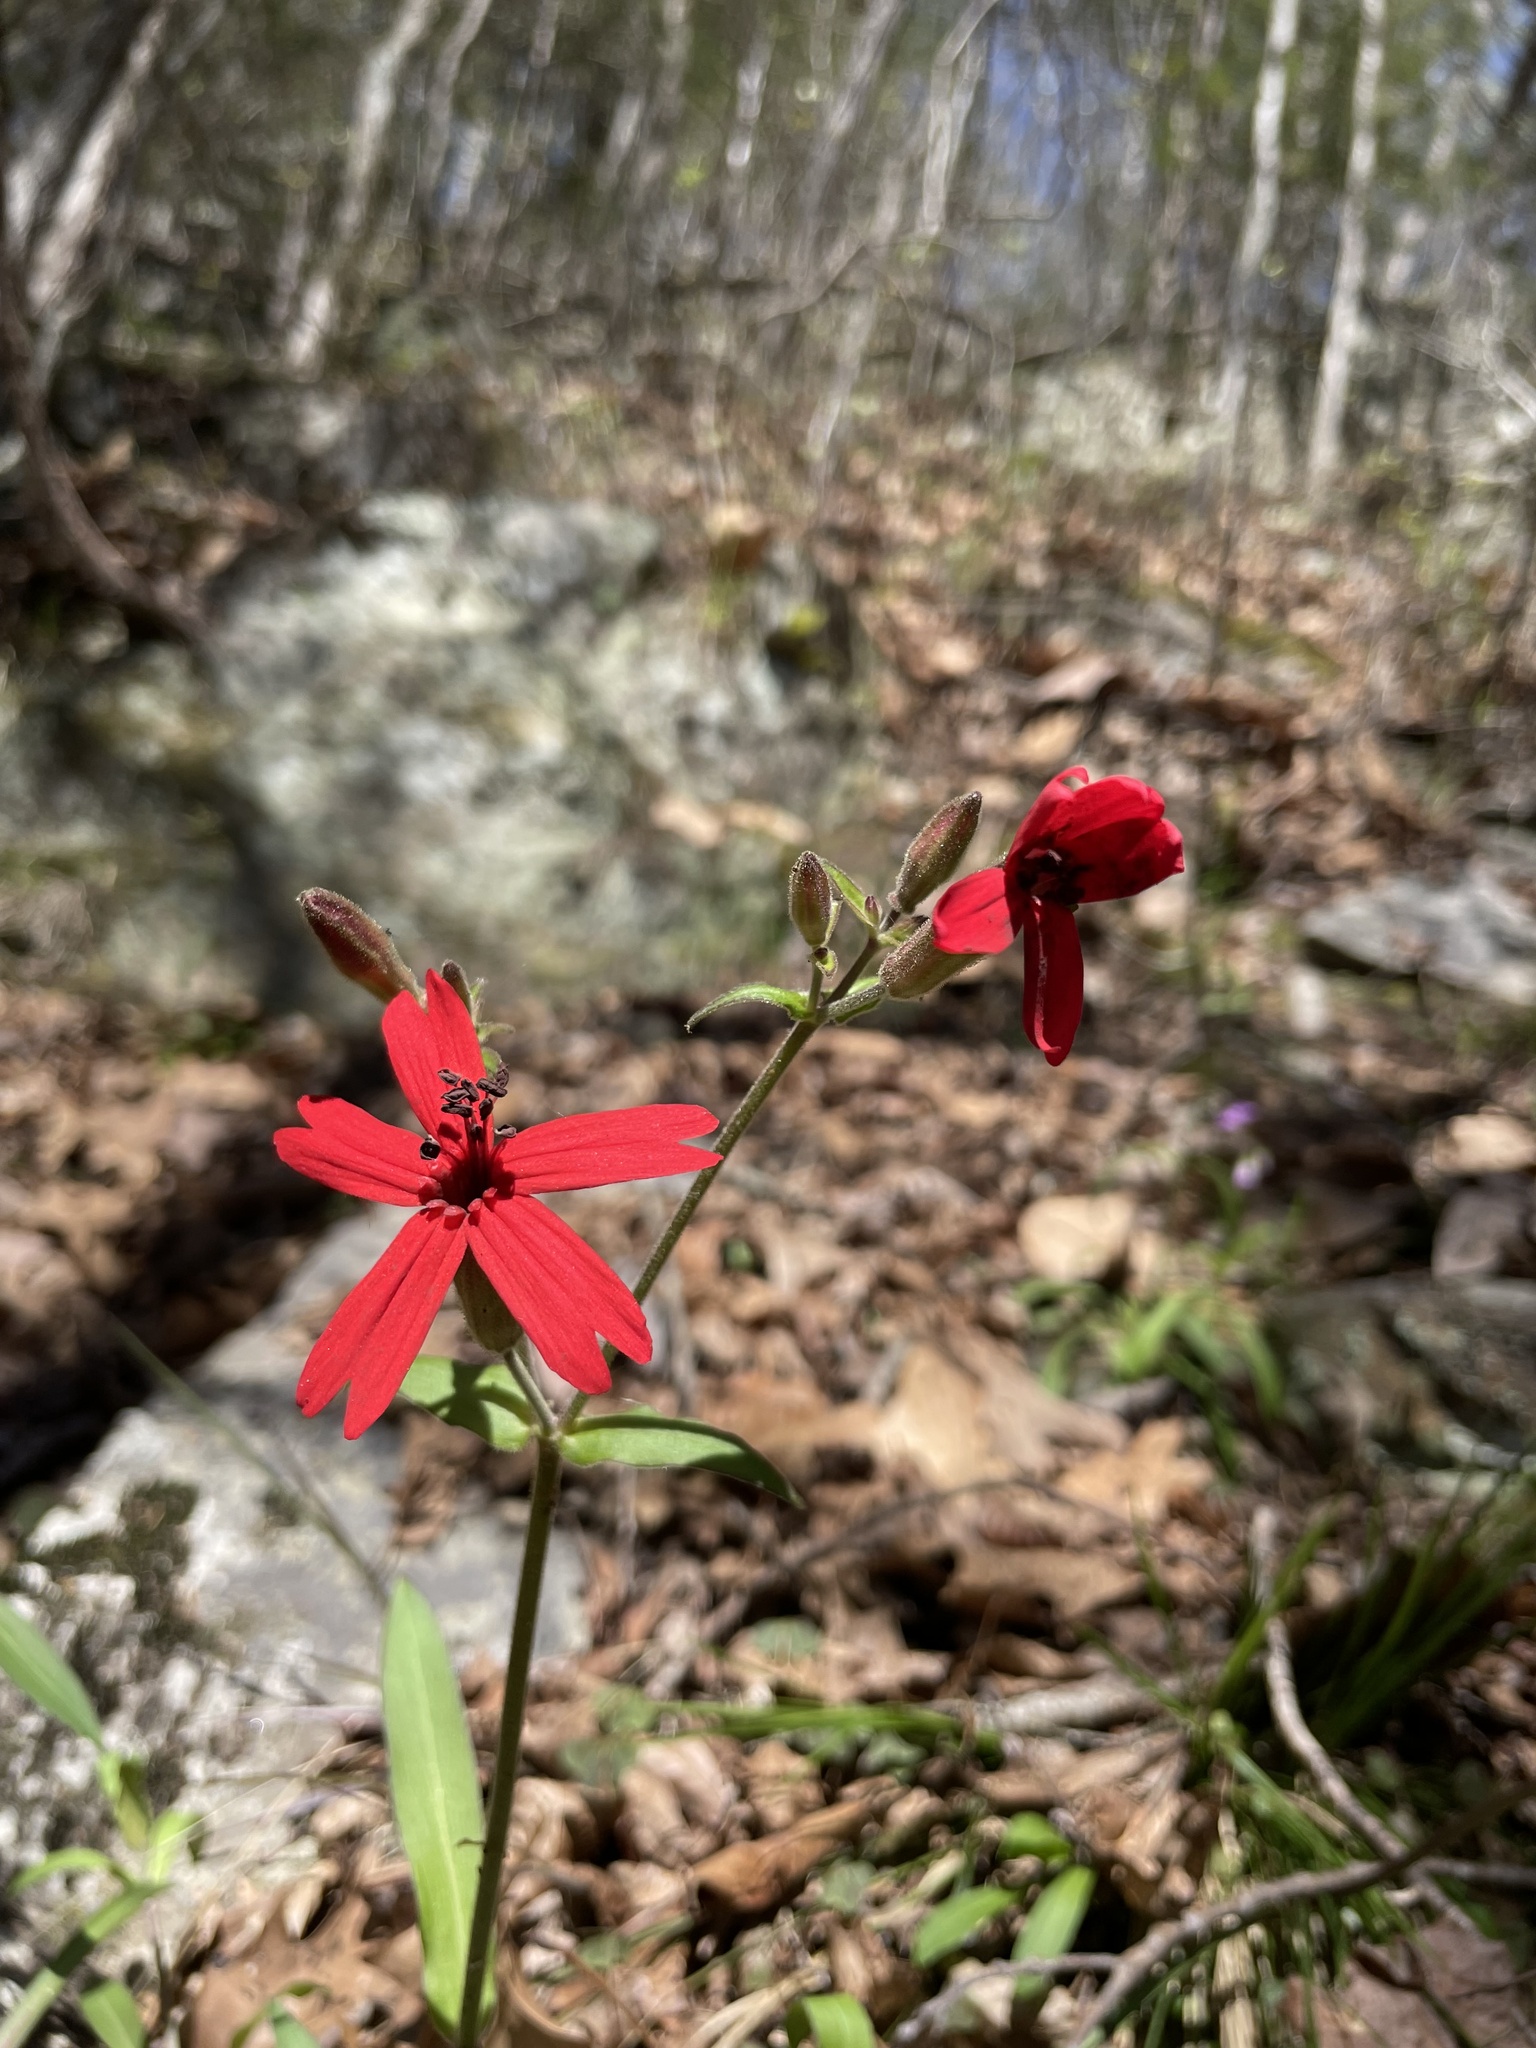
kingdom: Plantae
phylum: Tracheophyta
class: Magnoliopsida
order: Caryophyllales
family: Caryophyllaceae
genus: Silene
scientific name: Silene virginica
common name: Fire-pink
